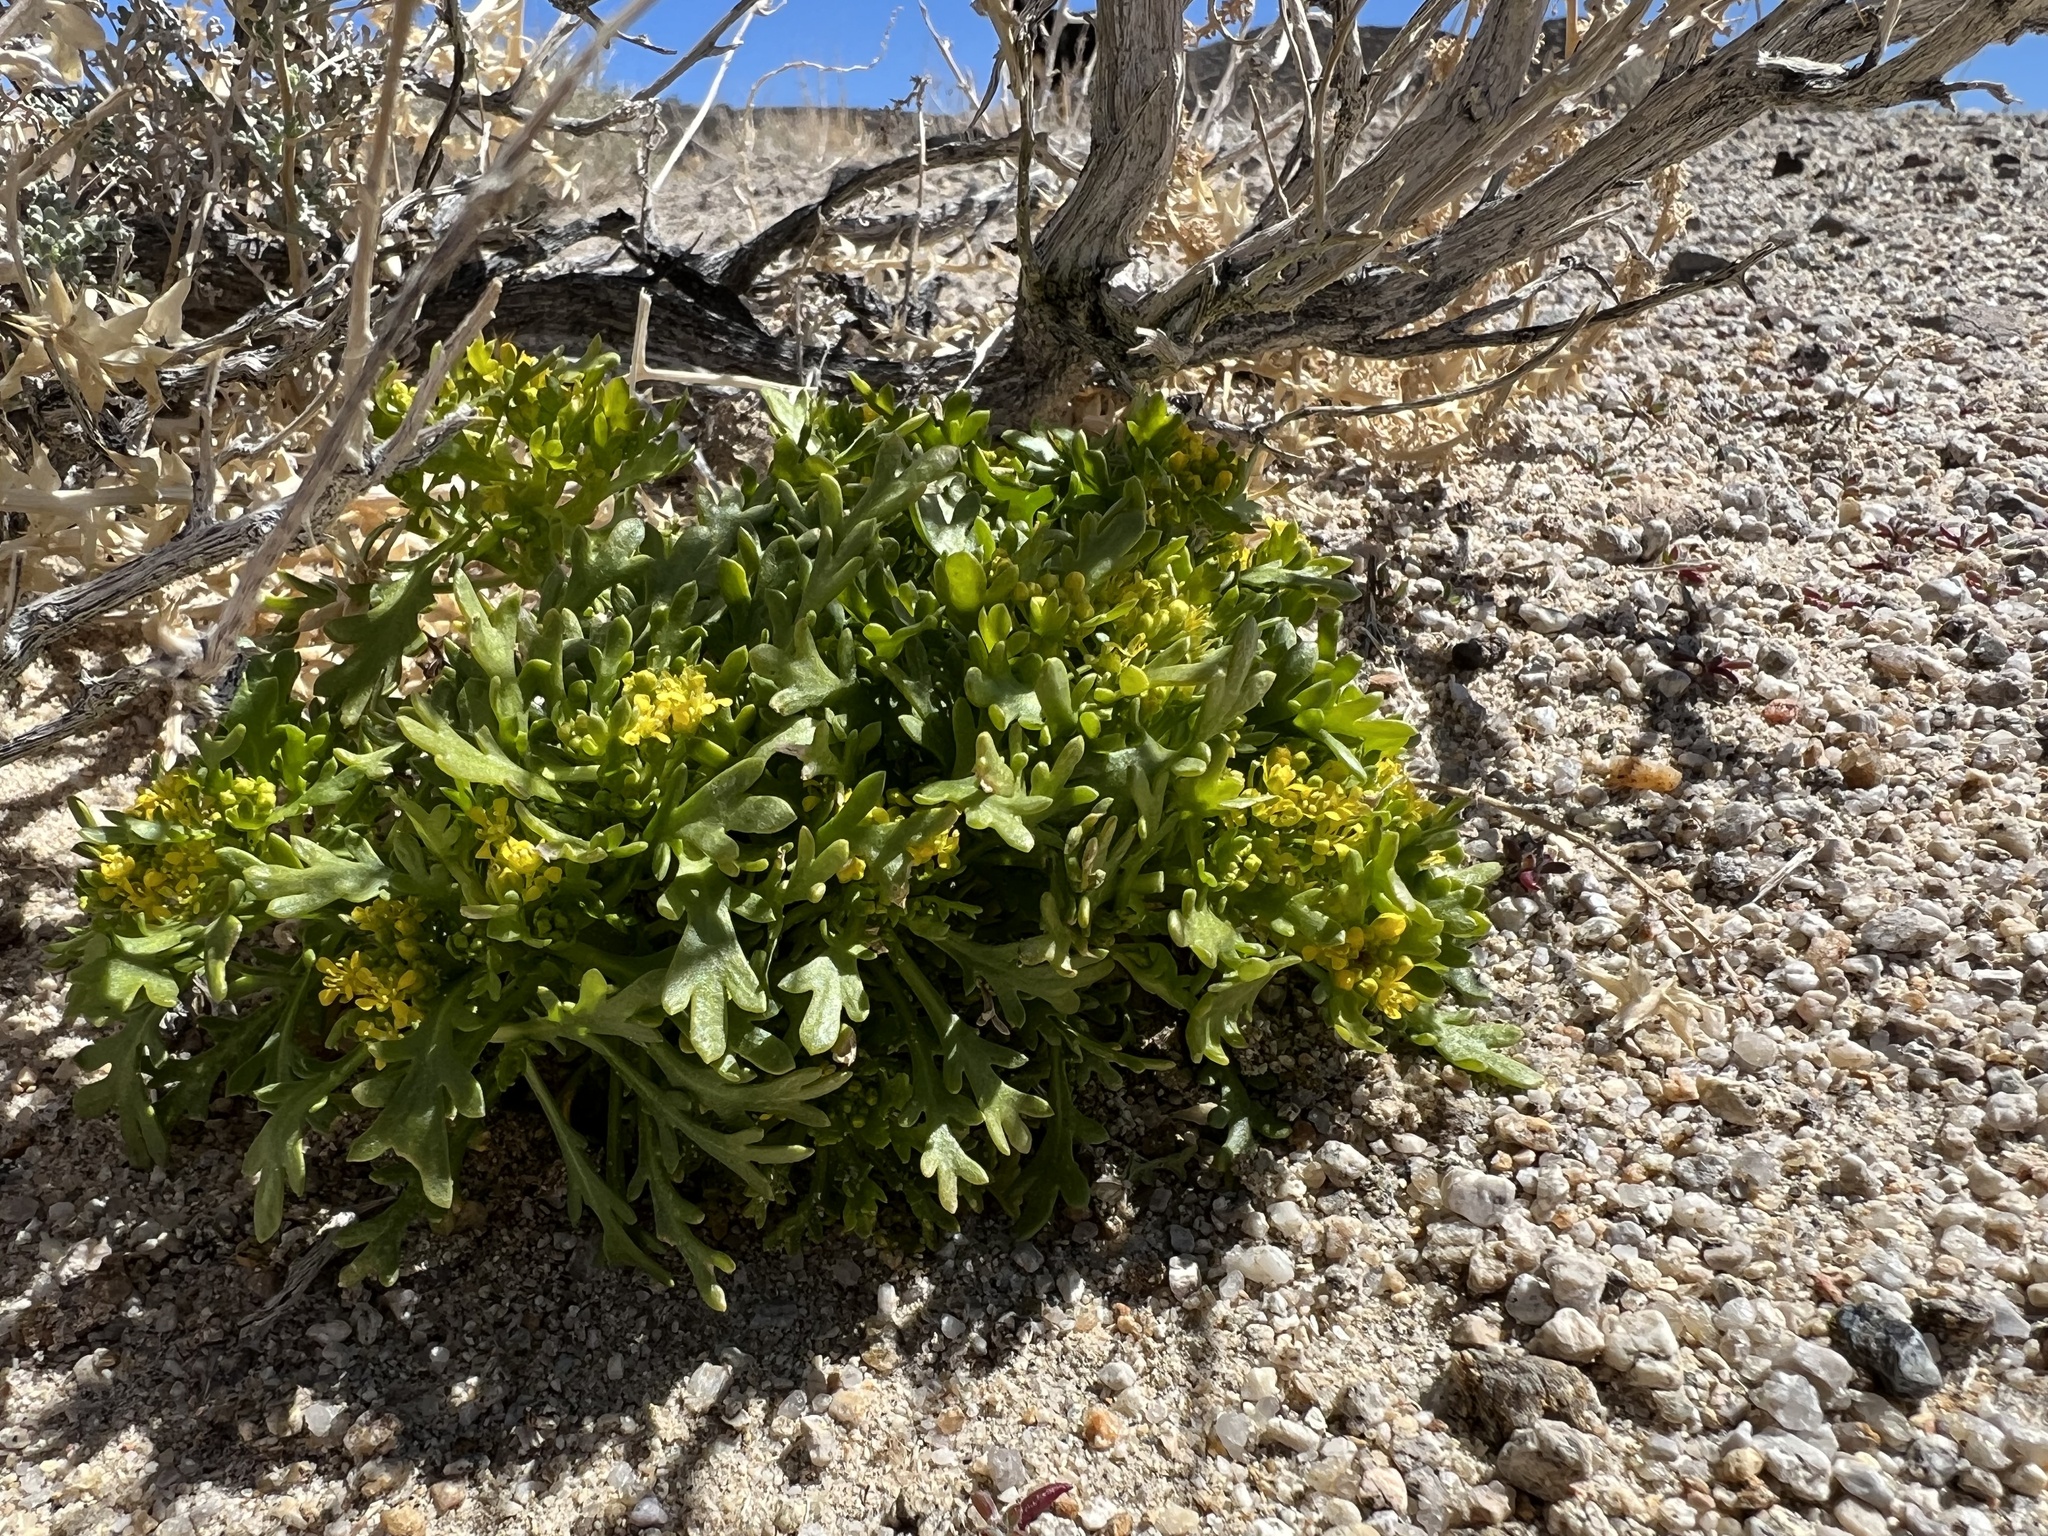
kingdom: Plantae
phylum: Tracheophyta
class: Magnoliopsida
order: Brassicales
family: Brassicaceae
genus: Lepidium
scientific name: Lepidium flavum
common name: Yellow pepperwort
